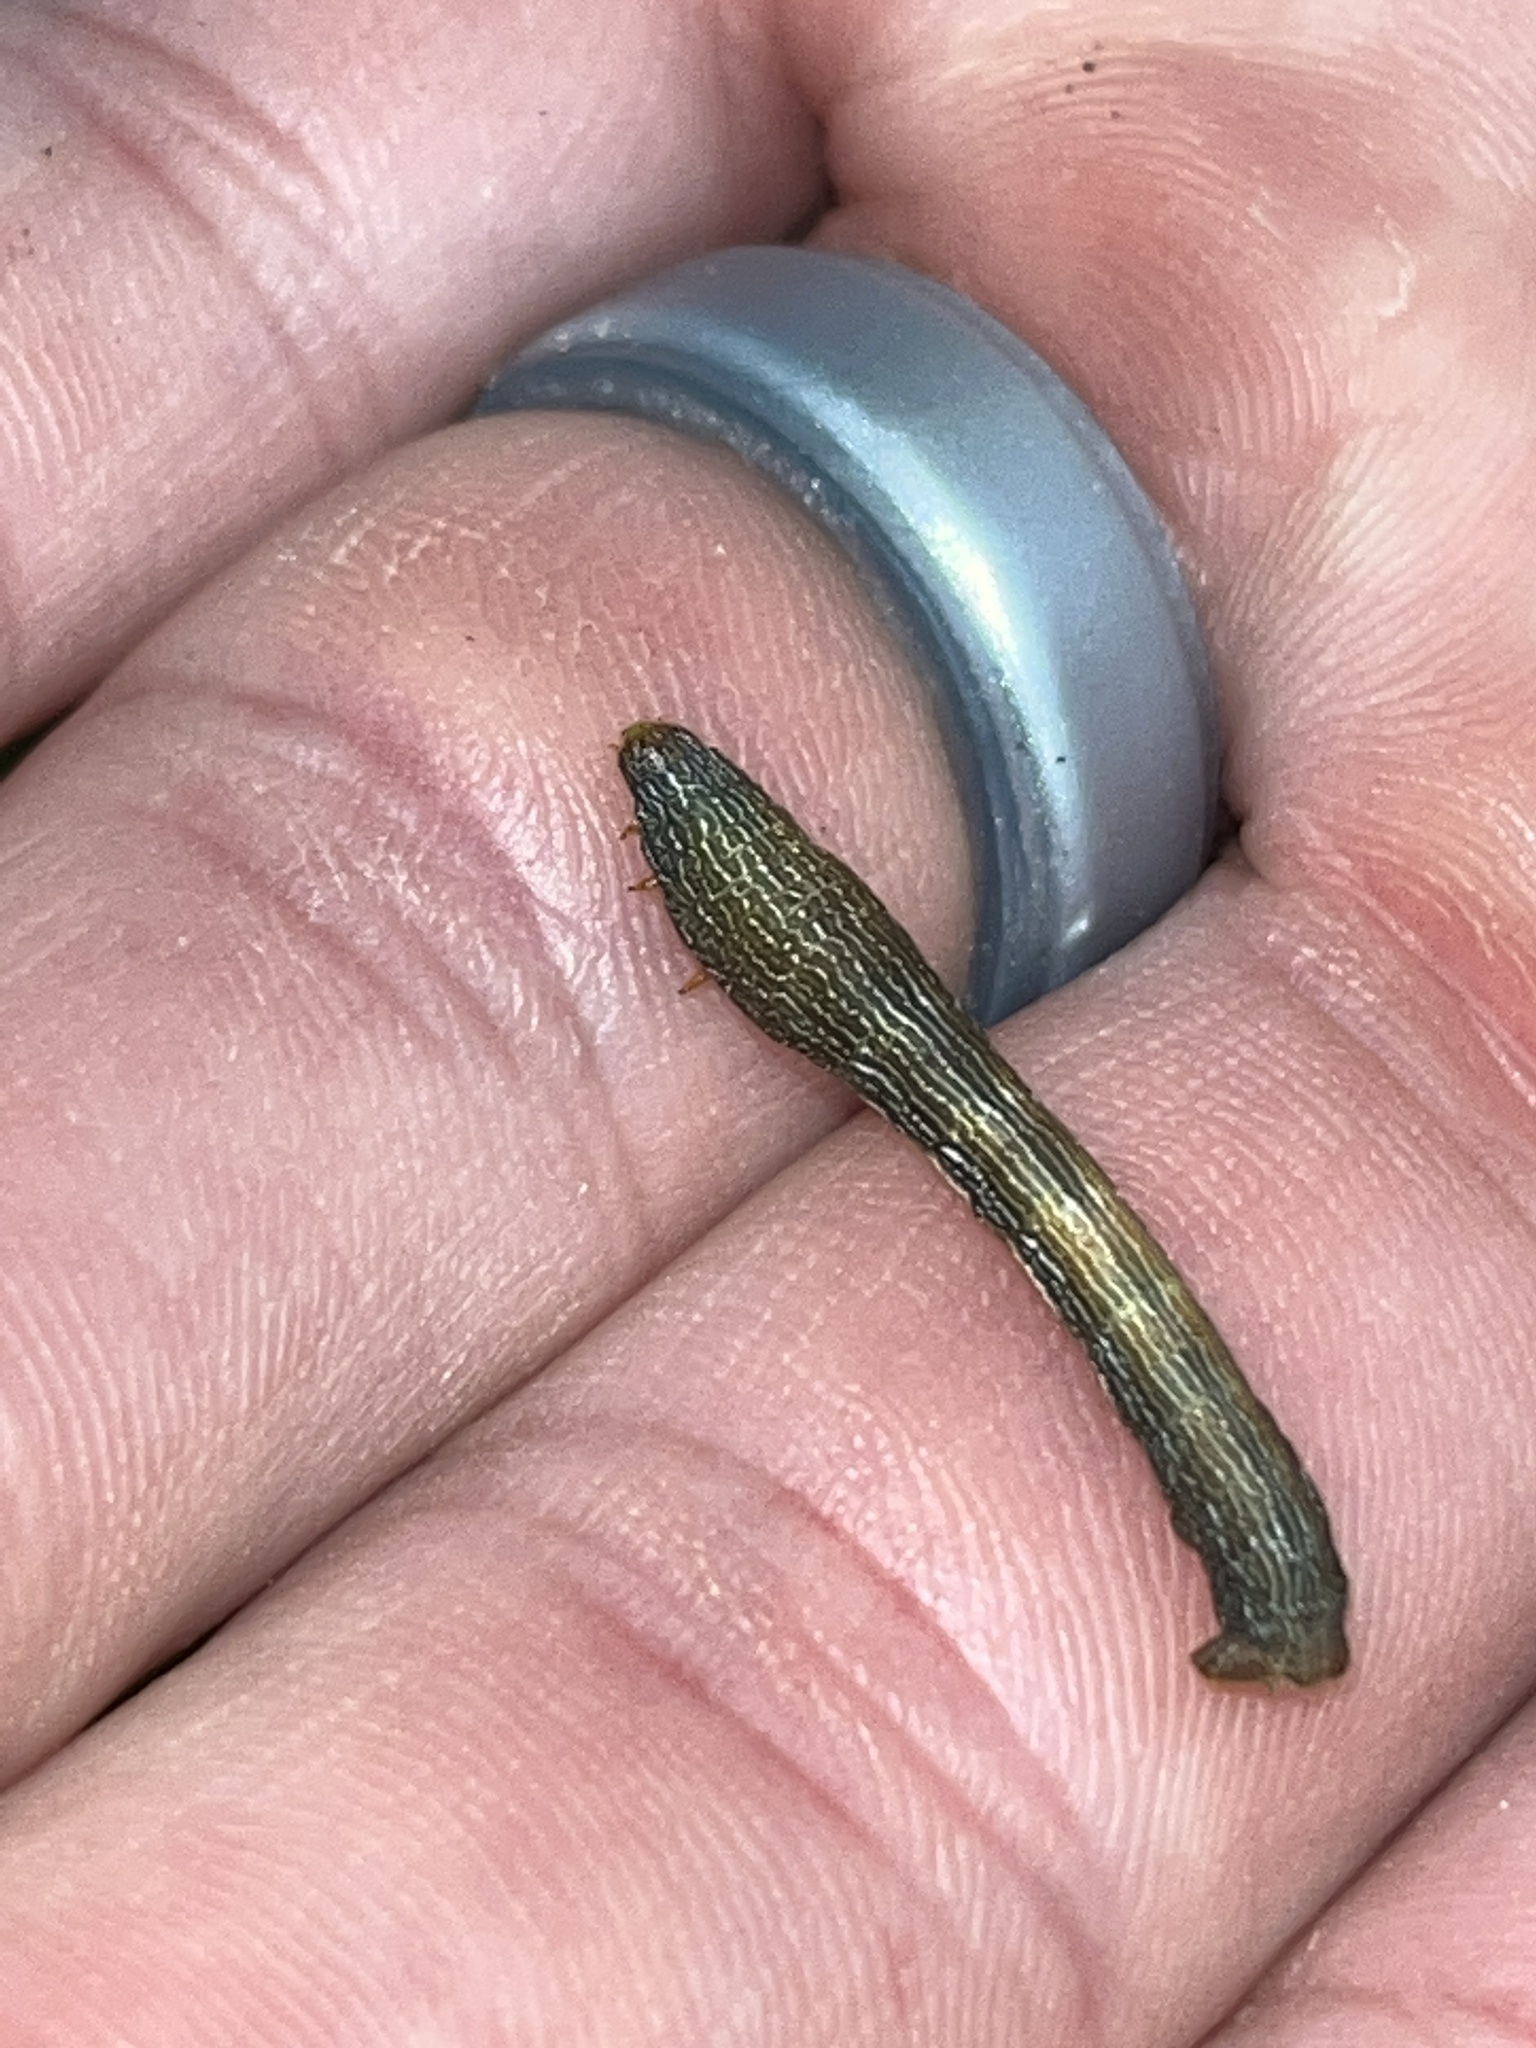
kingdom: Animalia
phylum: Arthropoda
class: Insecta
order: Lepidoptera
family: Geometridae
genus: Epimecis
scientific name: Epimecis hortaria
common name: Tulip-tree beauty
